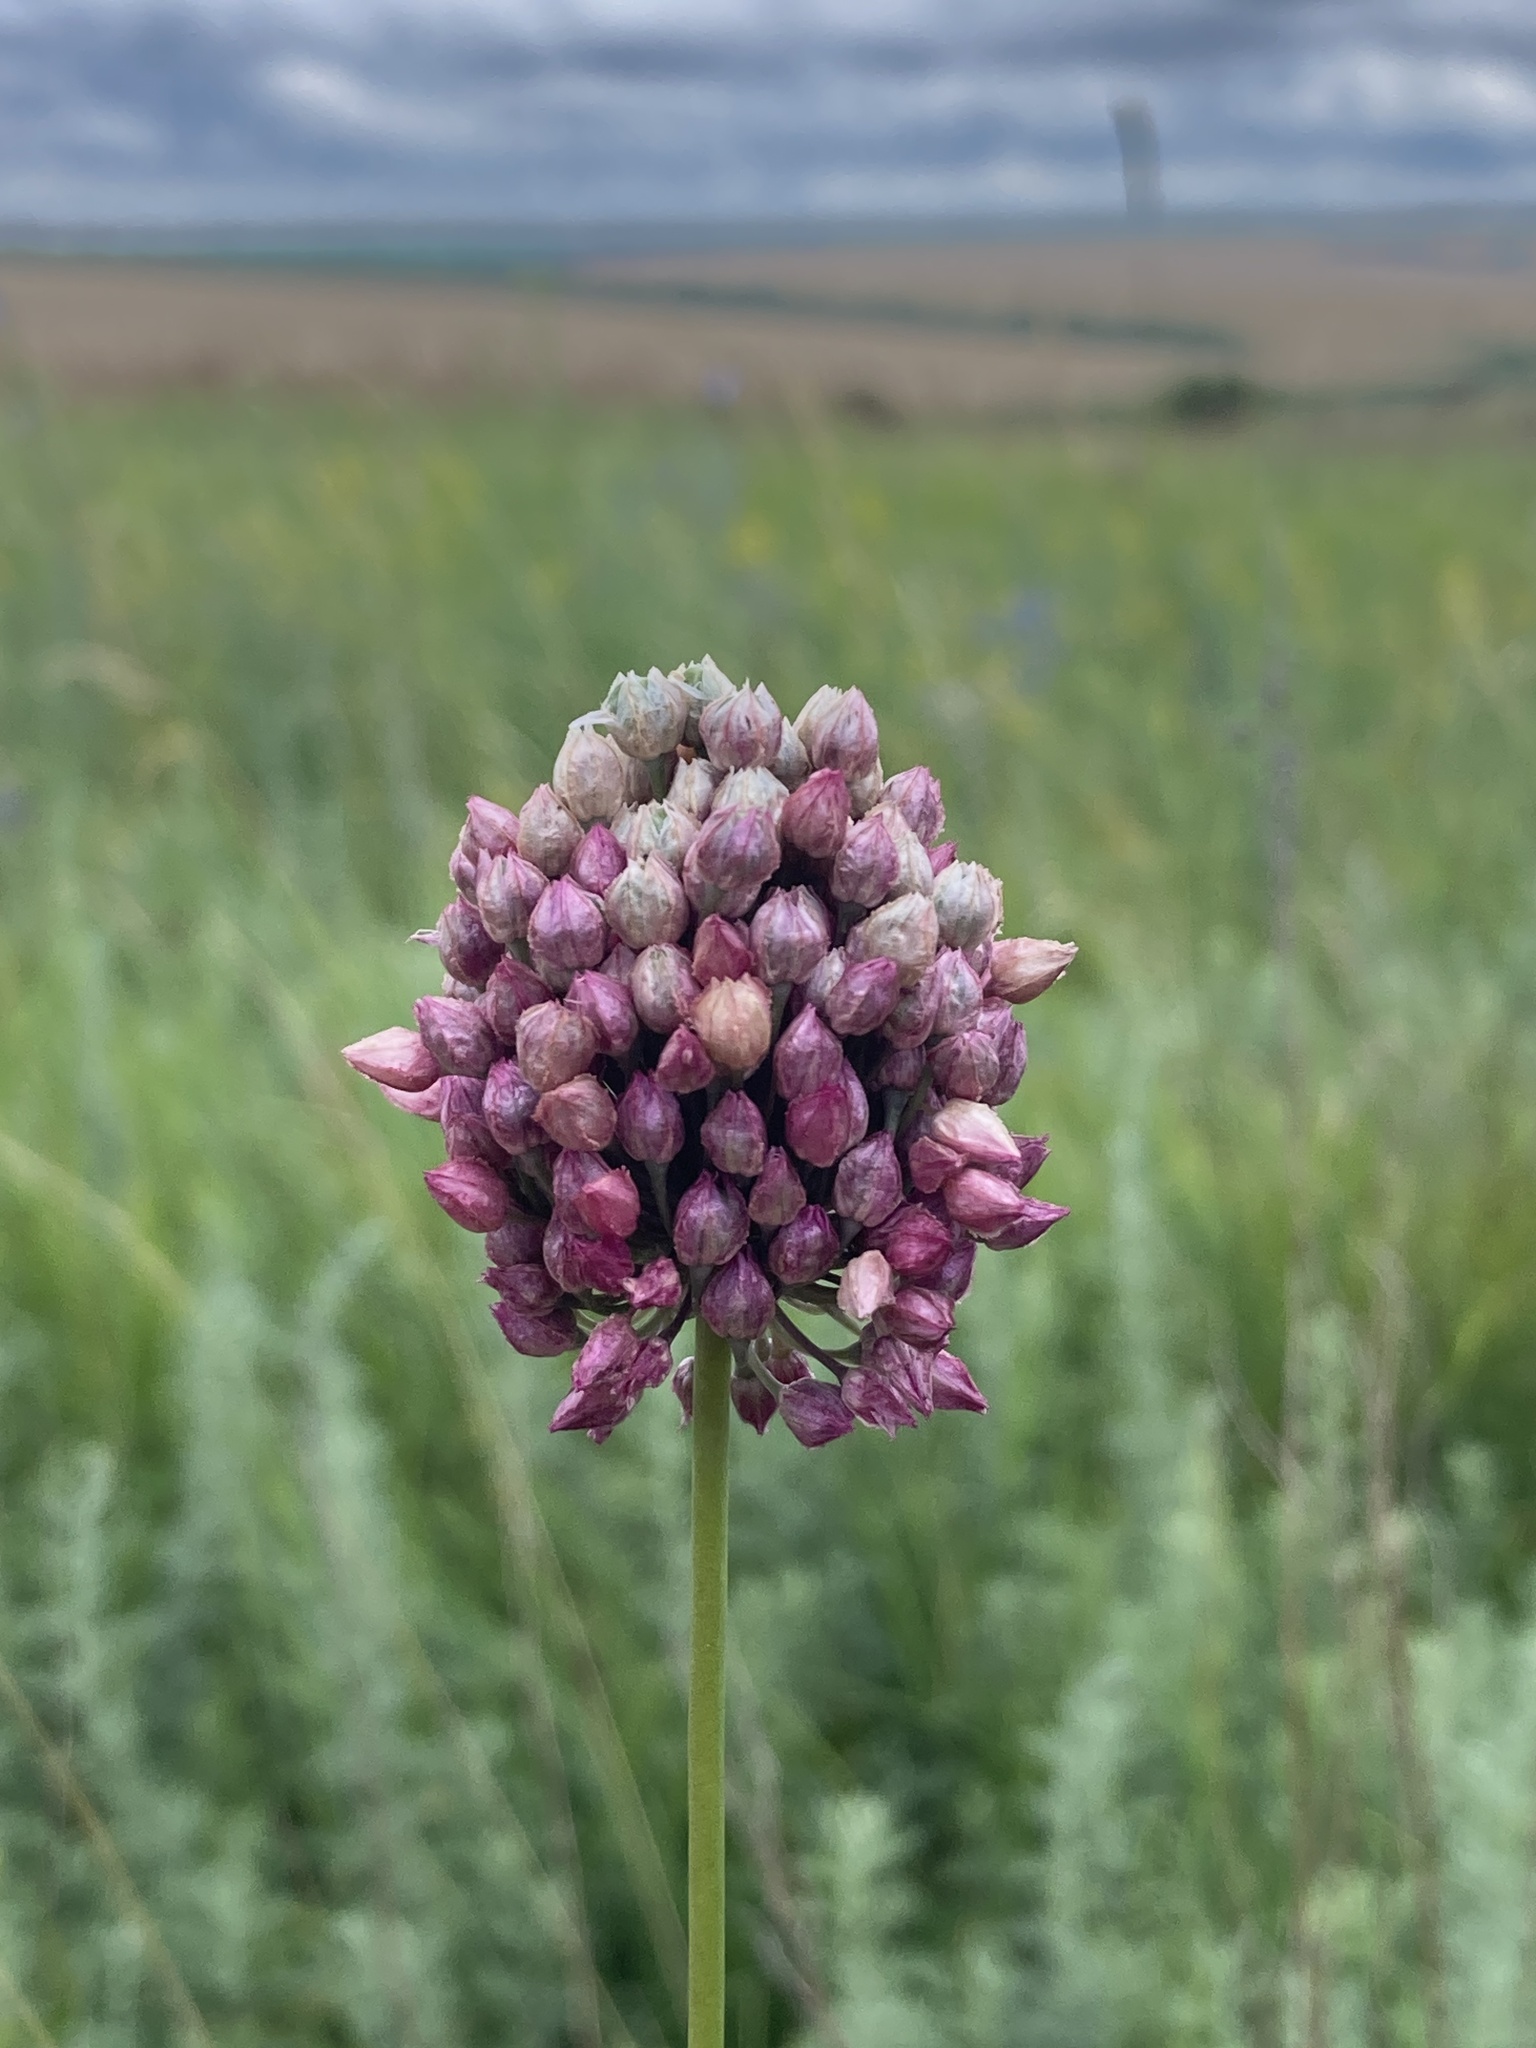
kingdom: Plantae
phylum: Tracheophyta
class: Liliopsida
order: Asparagales
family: Amaryllidaceae
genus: Allium
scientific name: Allium rotundum
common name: Sand leek
